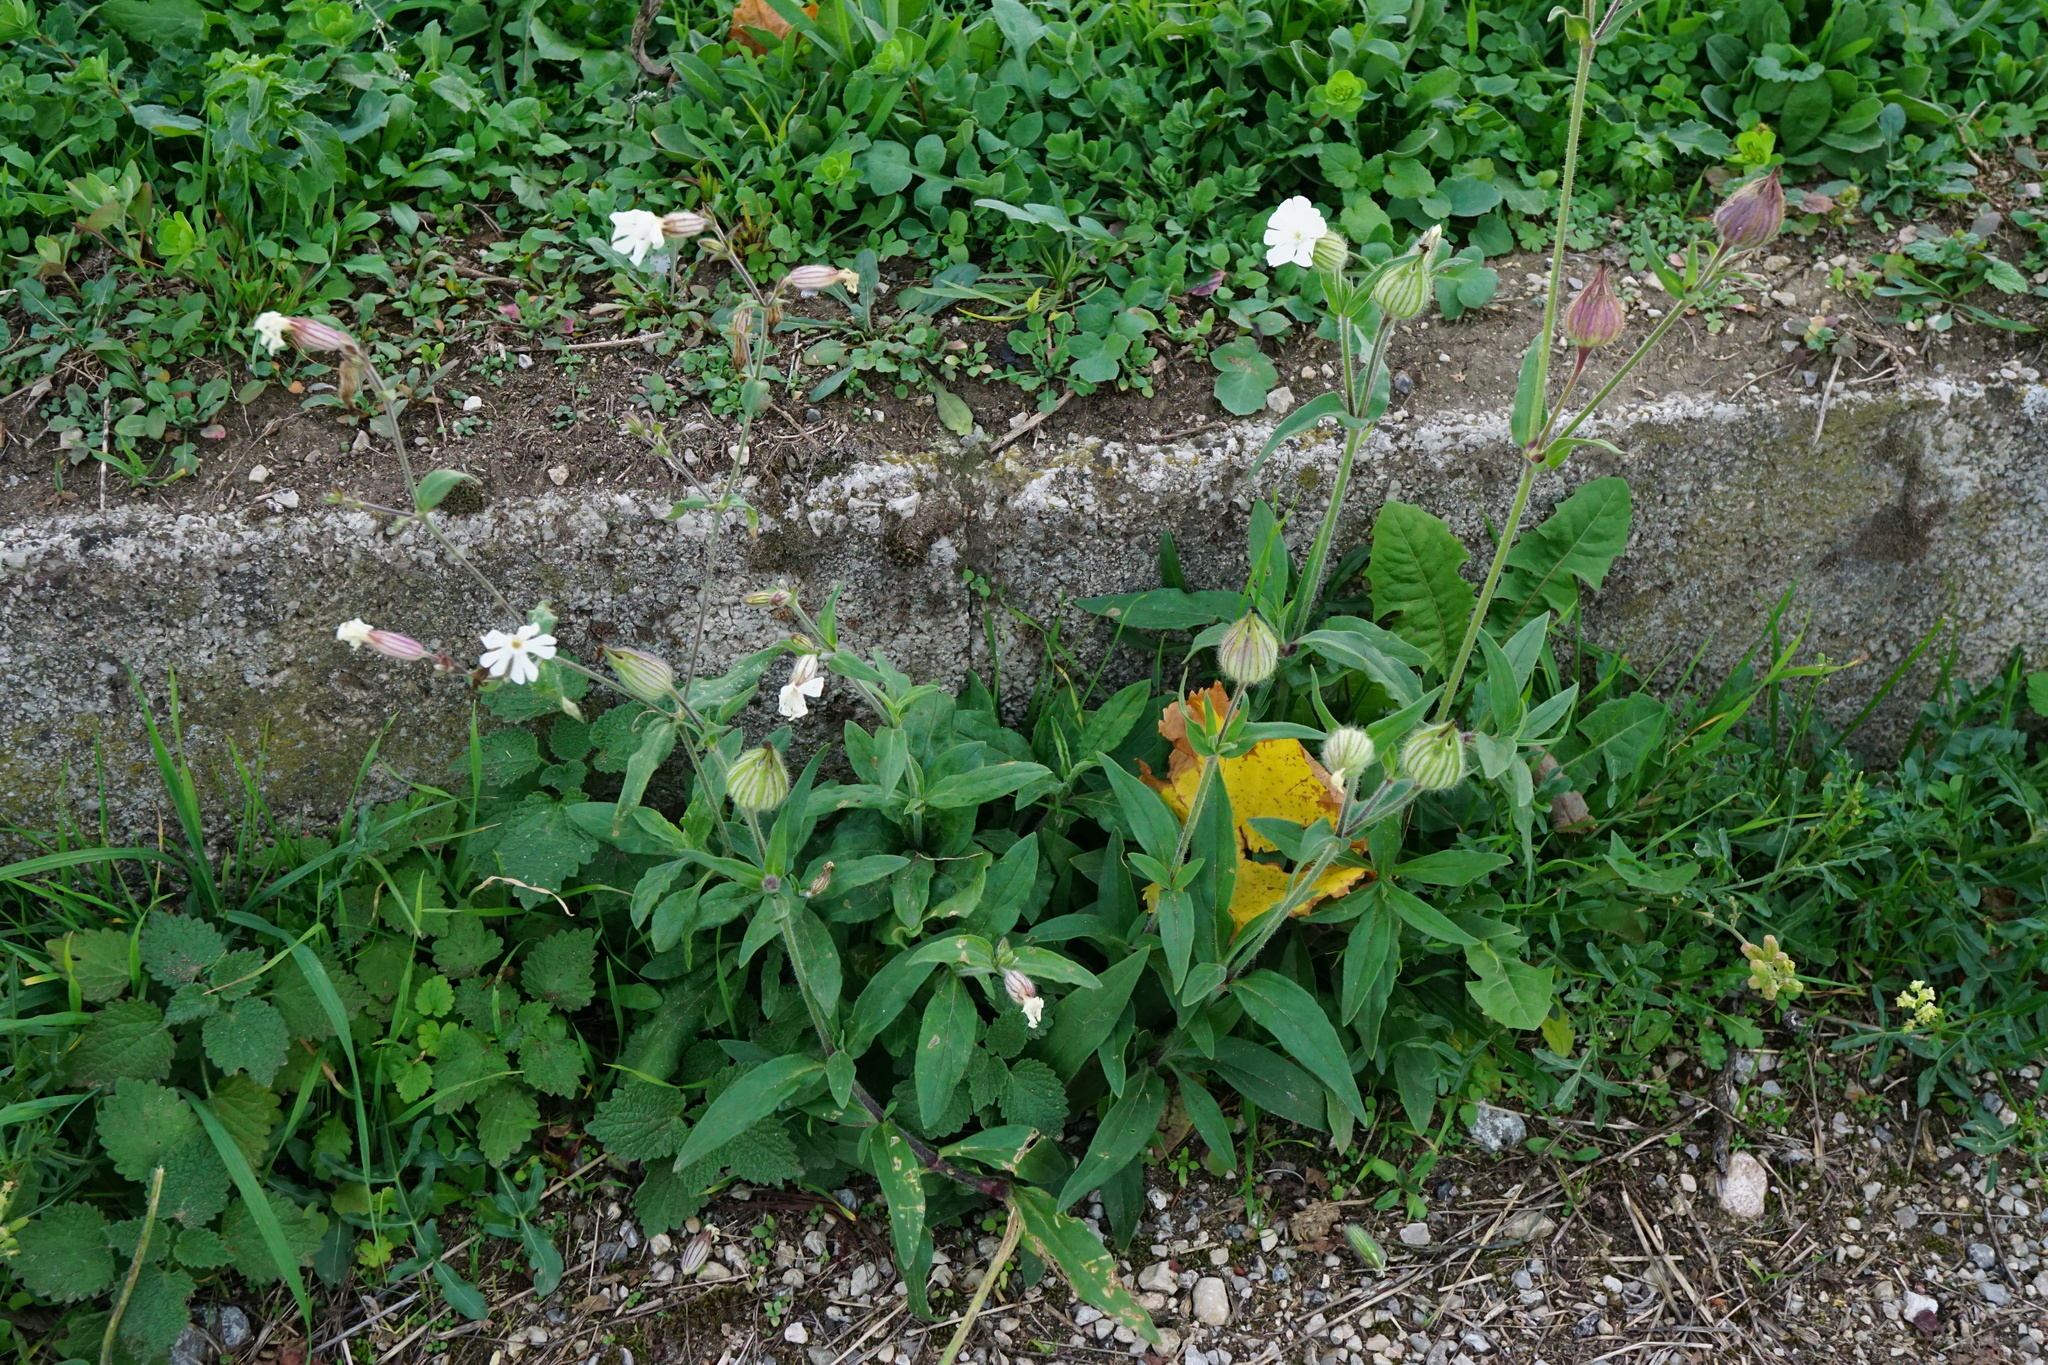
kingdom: Plantae
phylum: Tracheophyta
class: Magnoliopsida
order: Caryophyllales
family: Caryophyllaceae
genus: Silene
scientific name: Silene latifolia
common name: White campion
